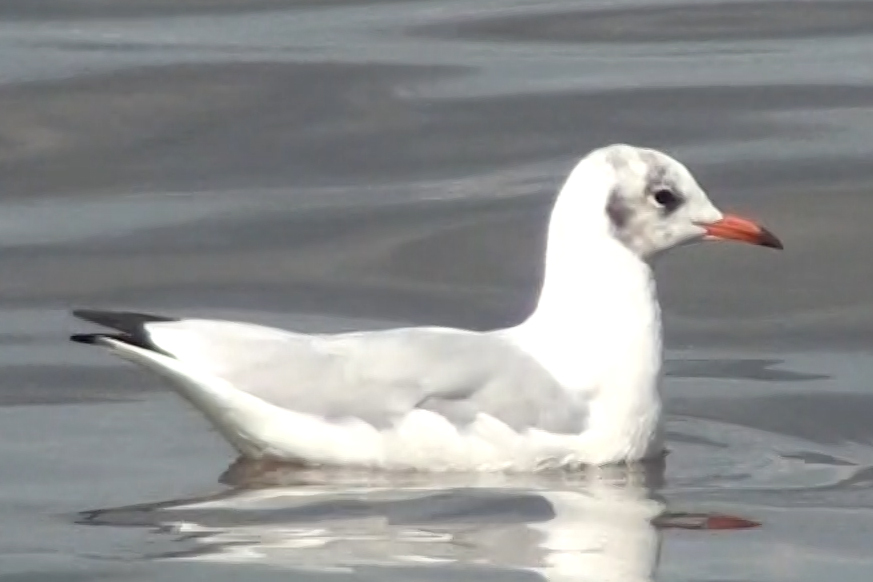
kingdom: Animalia
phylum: Chordata
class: Aves
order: Charadriiformes
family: Laridae
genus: Chroicocephalus
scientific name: Chroicocephalus ridibundus
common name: Black-headed gull
